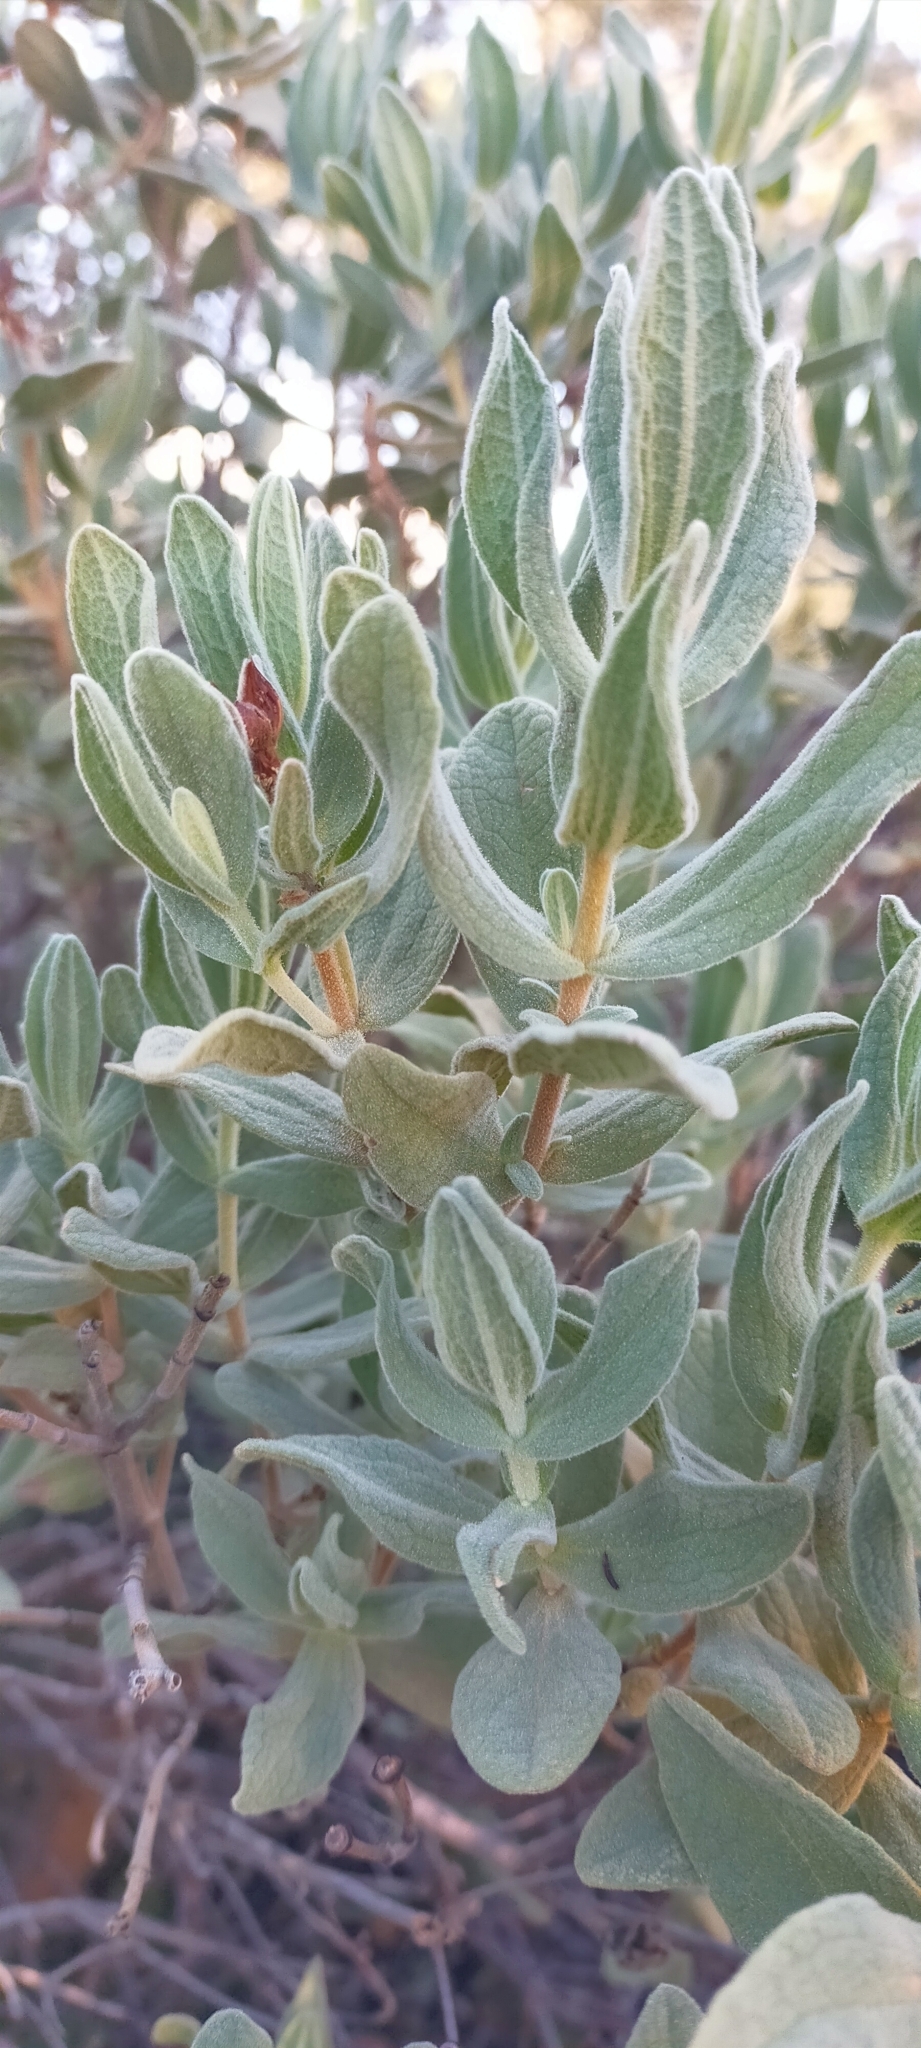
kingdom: Plantae
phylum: Tracheophyta
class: Magnoliopsida
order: Malvales
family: Cistaceae
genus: Cistus
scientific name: Cistus albidus
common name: White-leaf rock-rose
